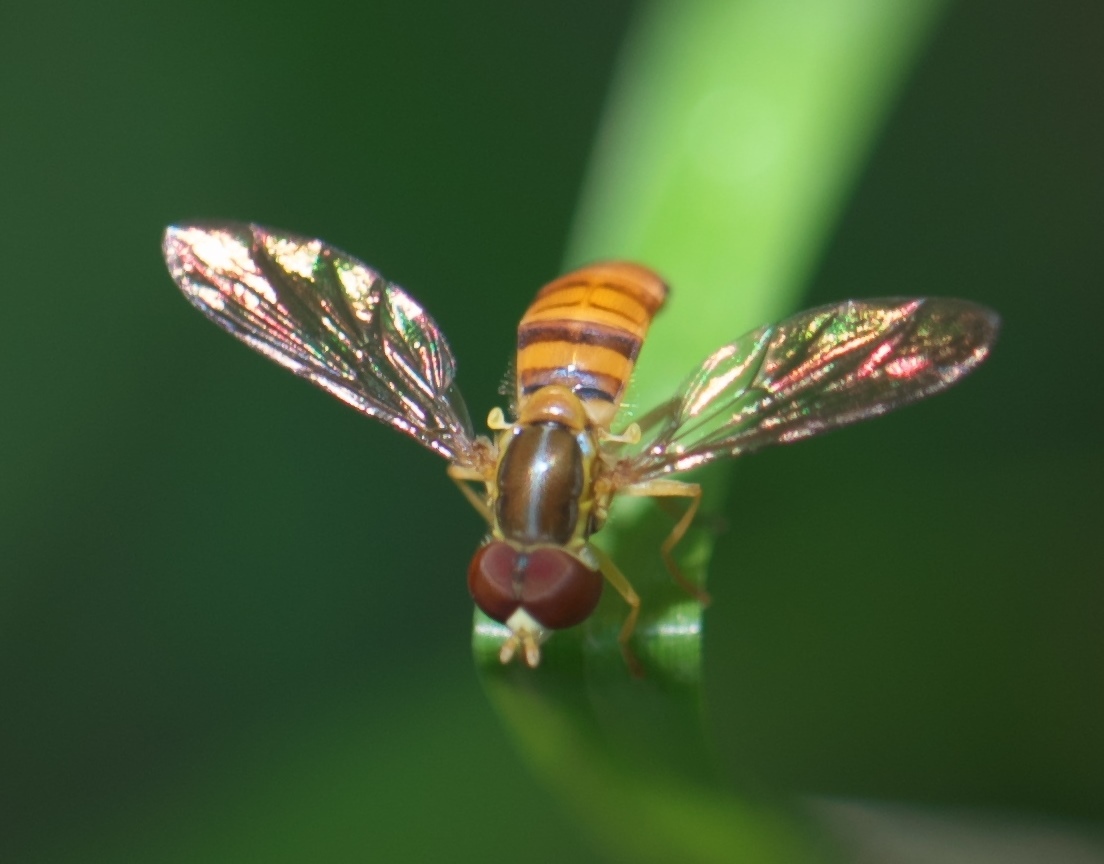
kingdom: Animalia
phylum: Arthropoda
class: Insecta
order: Diptera
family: Syrphidae
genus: Toxomerus
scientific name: Toxomerus politus
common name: Maize calligrapher
